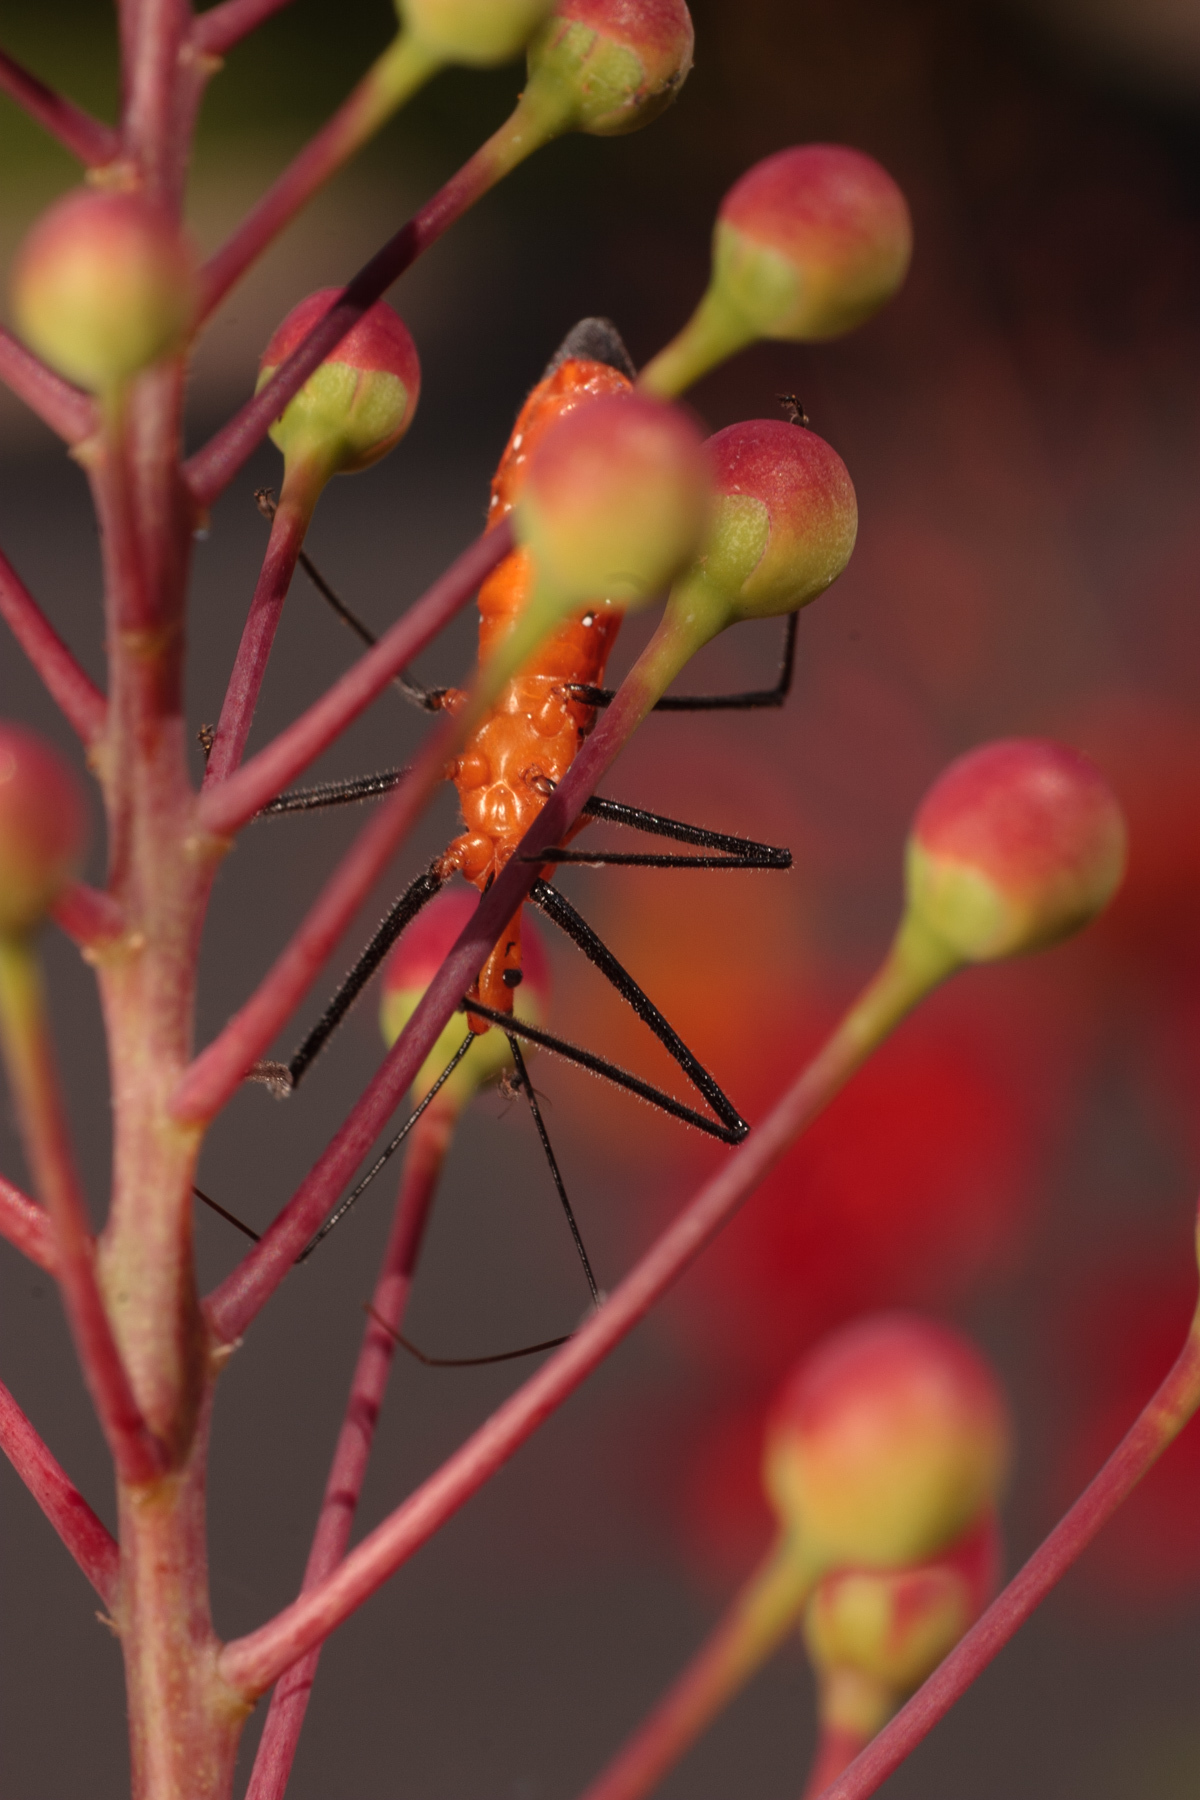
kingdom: Animalia
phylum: Arthropoda
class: Insecta
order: Hemiptera
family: Reduviidae
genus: Zelus
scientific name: Zelus longipes
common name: Milkweed assassin bug
